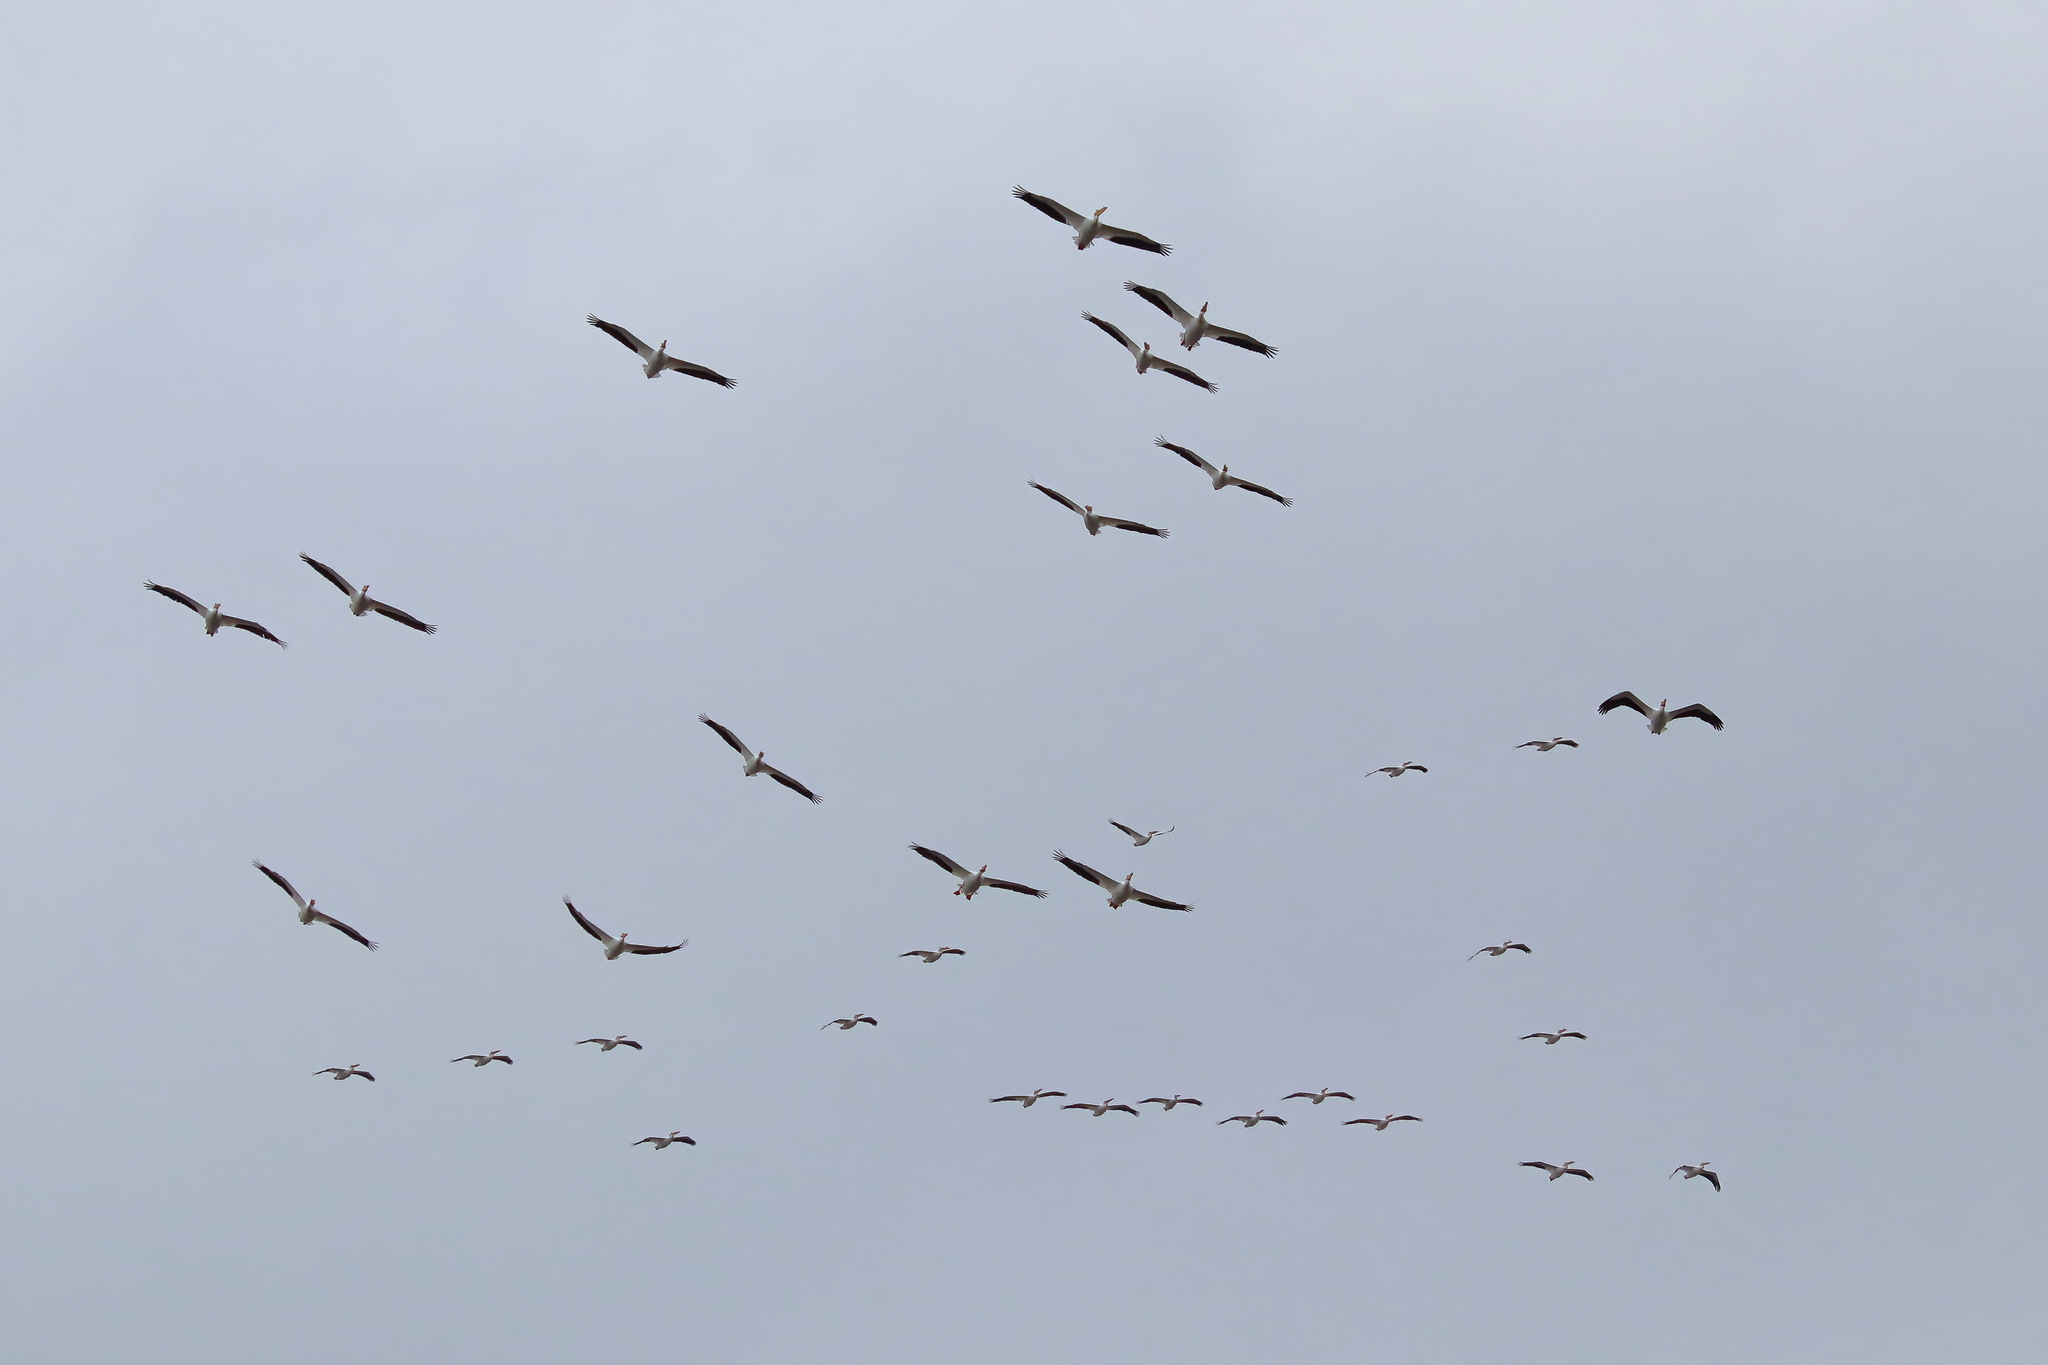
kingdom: Animalia
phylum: Chordata
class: Aves
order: Pelecaniformes
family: Pelecanidae
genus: Pelecanus
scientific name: Pelecanus erythrorhynchos
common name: American white pelican
